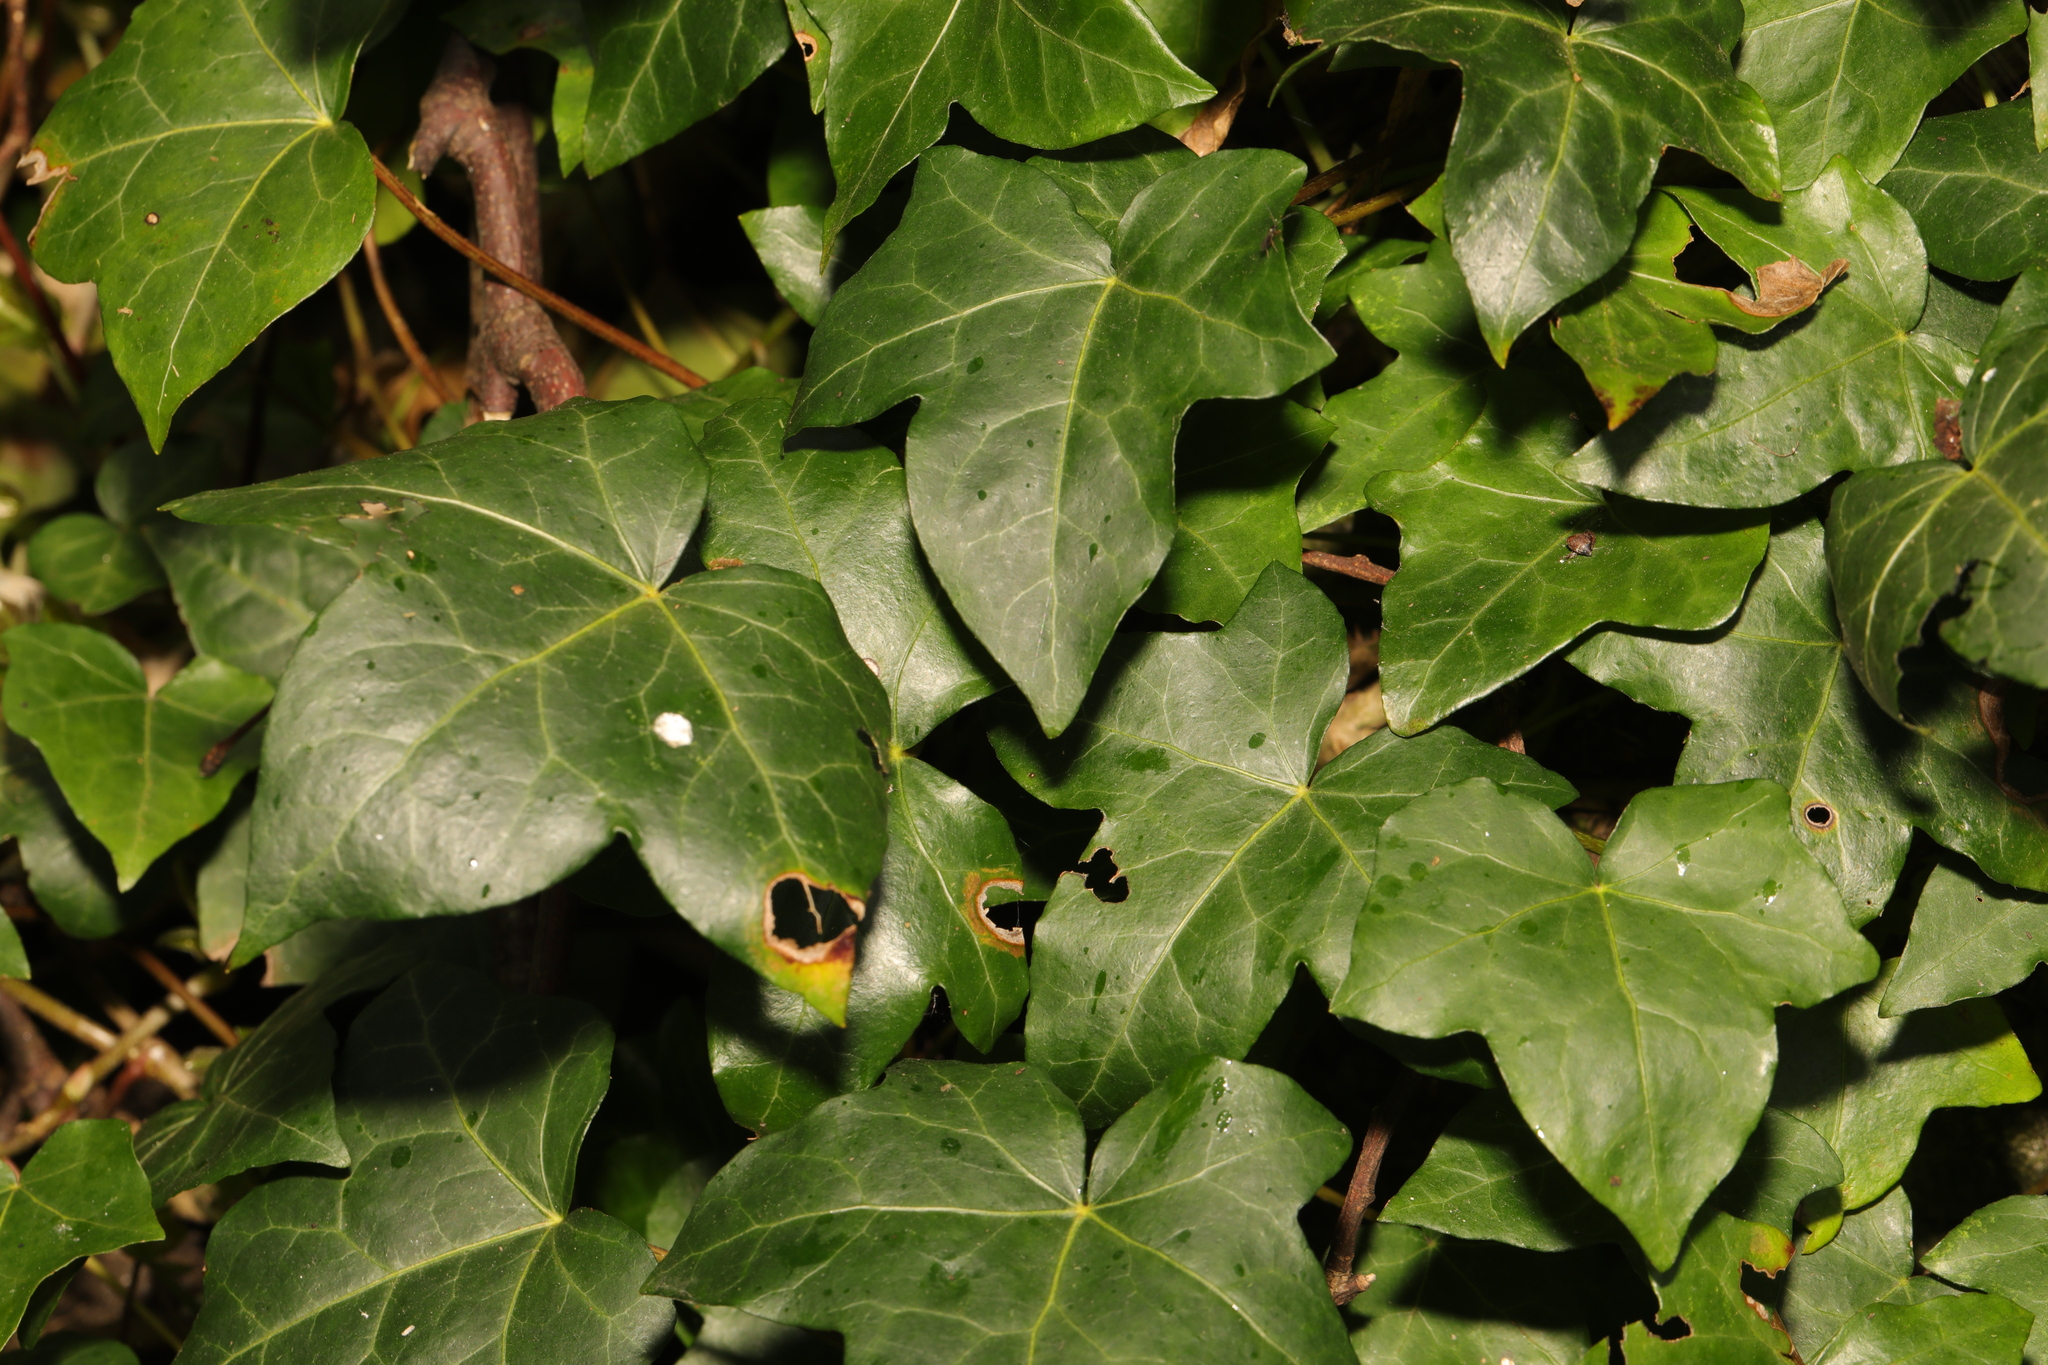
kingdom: Plantae
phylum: Tracheophyta
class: Magnoliopsida
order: Apiales
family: Araliaceae
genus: Hedera
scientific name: Hedera helix
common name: Ivy
